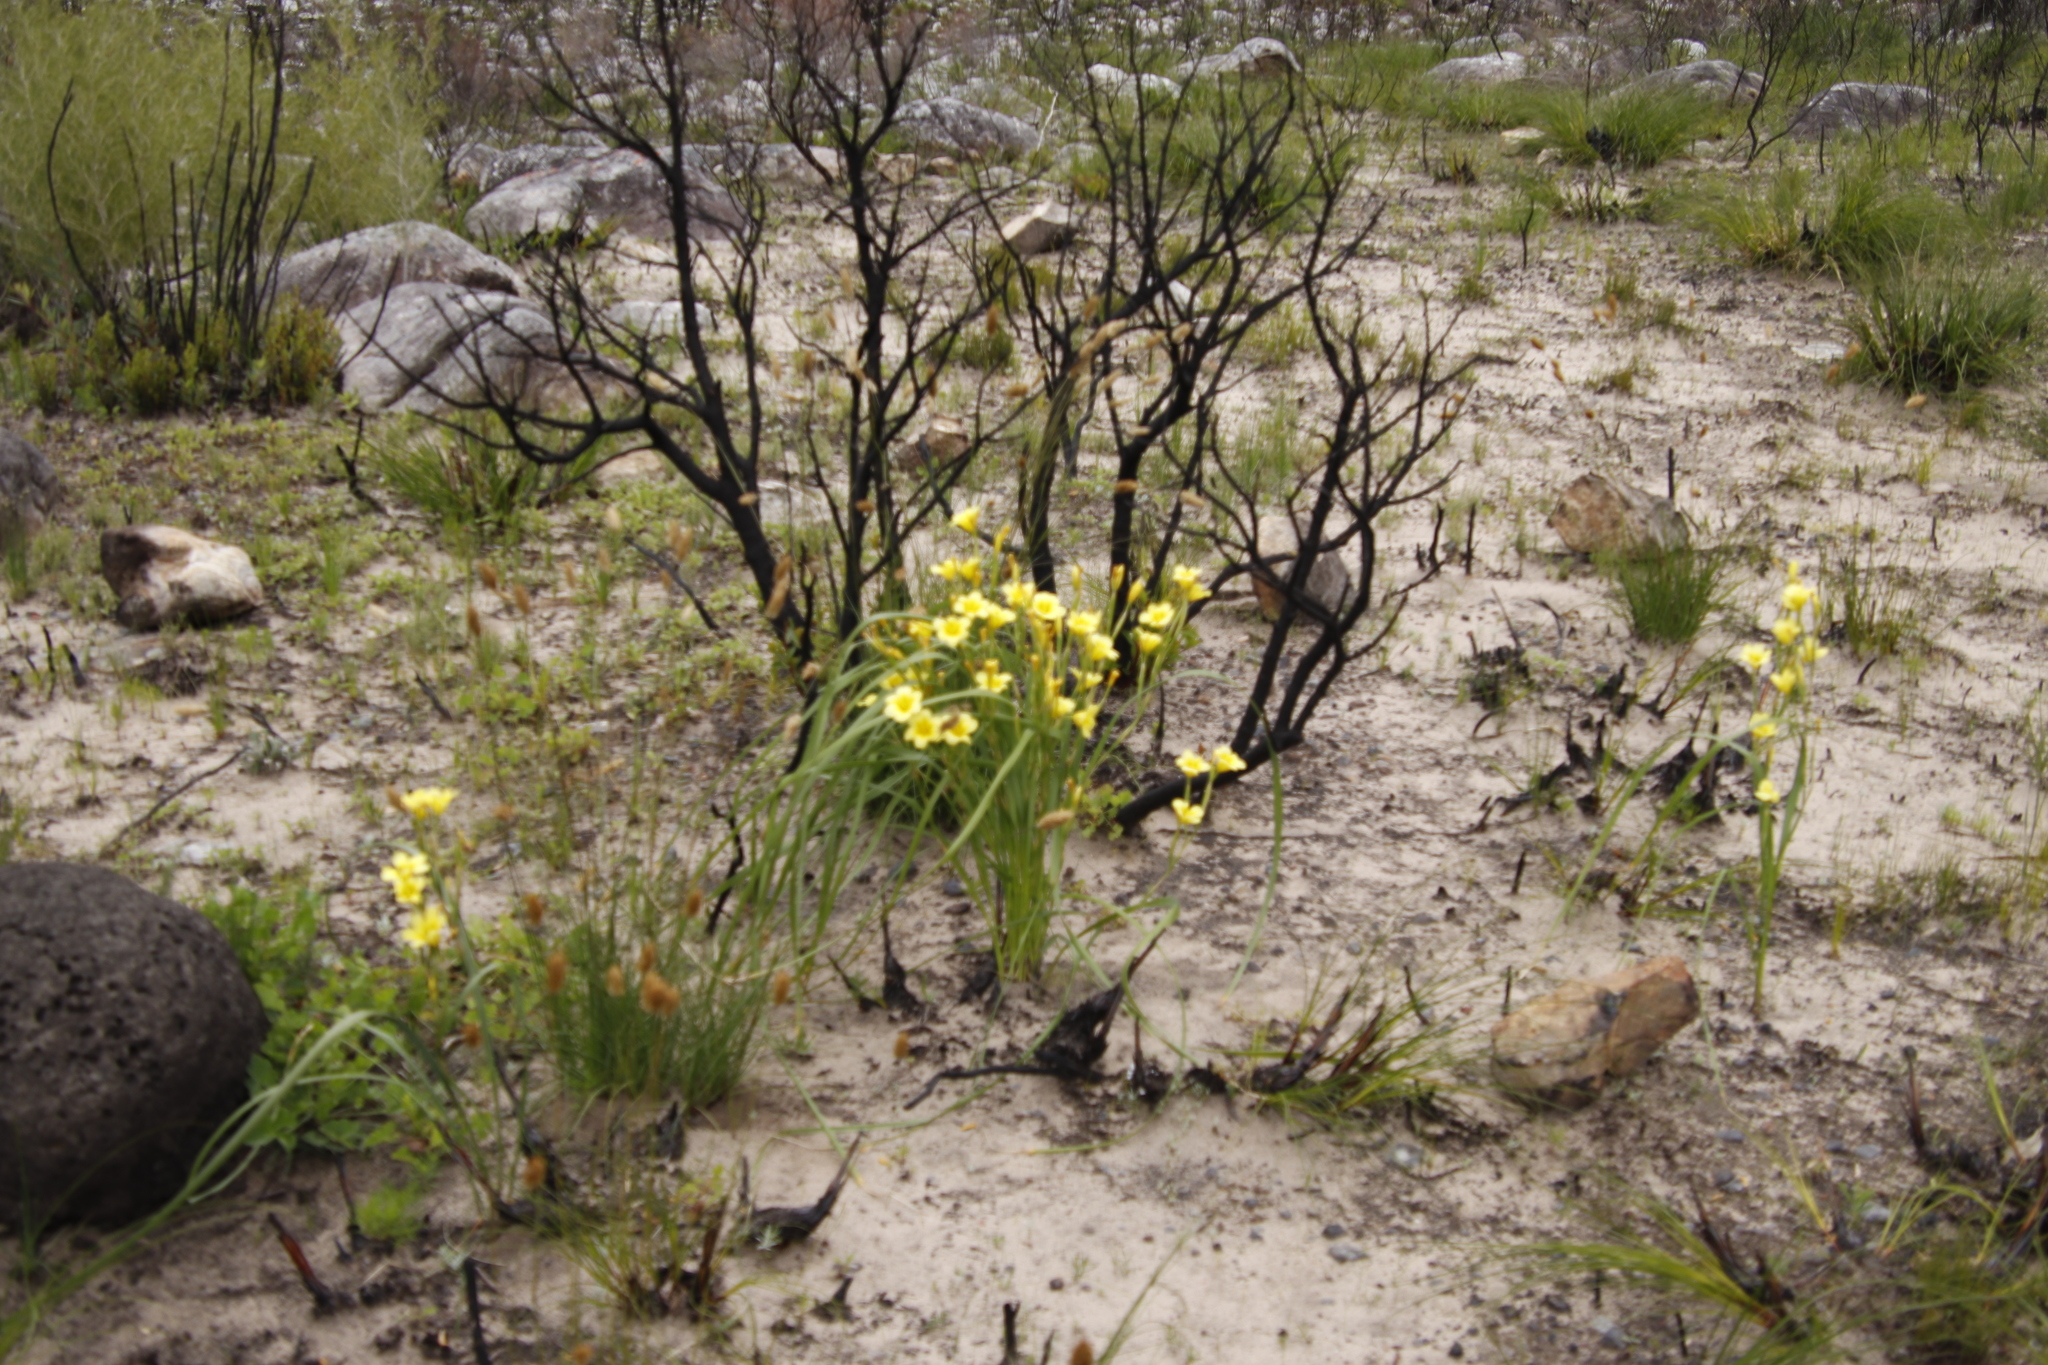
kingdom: Plantae
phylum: Tracheophyta
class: Liliopsida
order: Asparagales
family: Iridaceae
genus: Moraea
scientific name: Moraea ochroleuca
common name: Red tulp
